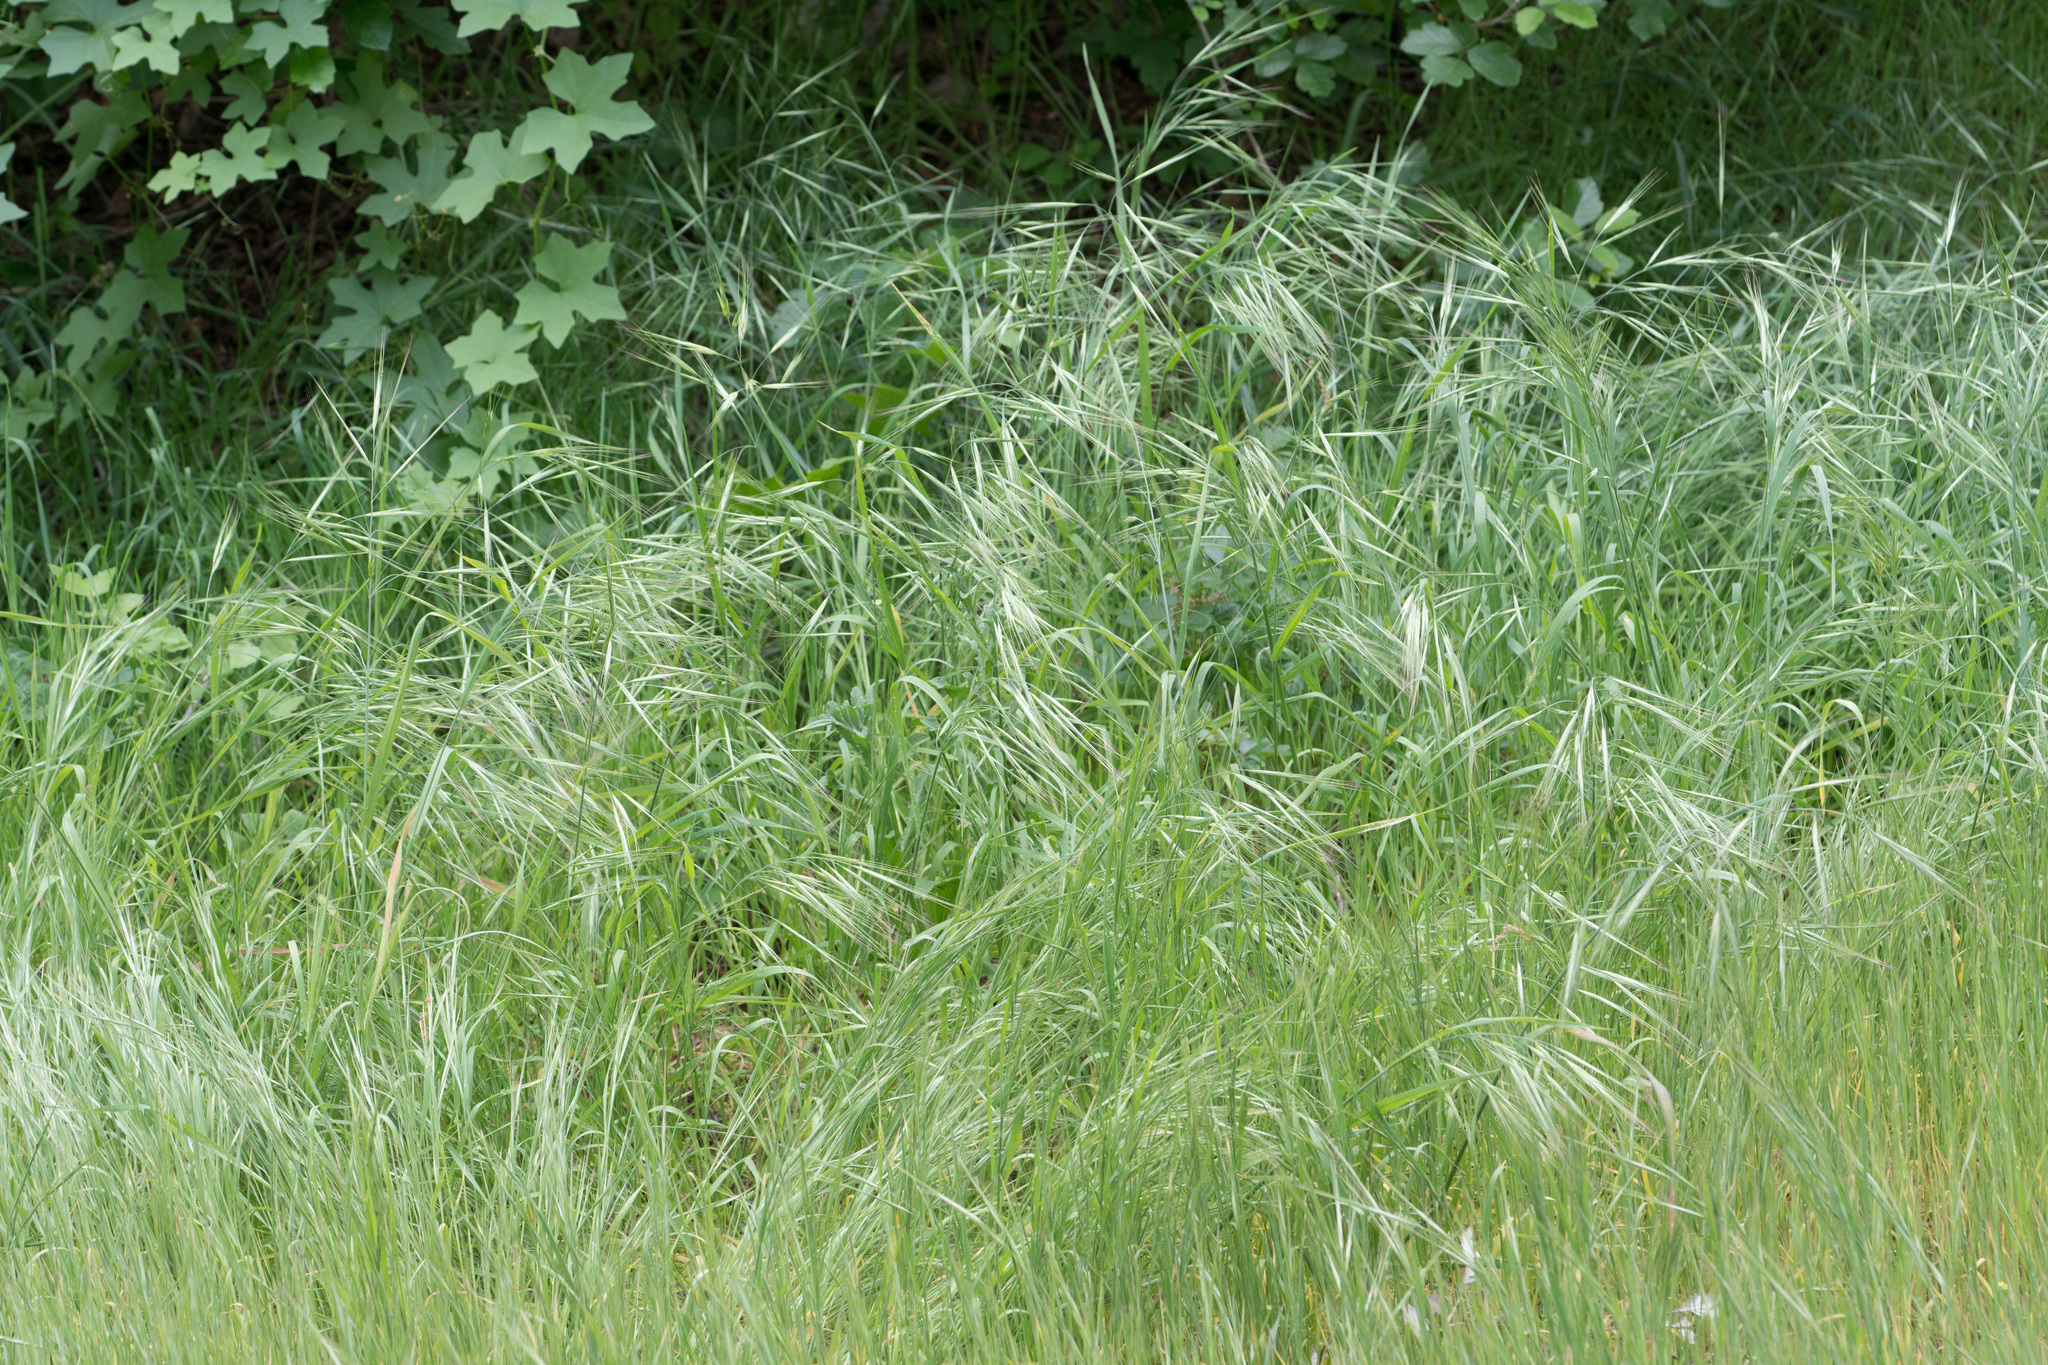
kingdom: Plantae
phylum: Tracheophyta
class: Liliopsida
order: Poales
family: Poaceae
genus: Bromus
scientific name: Bromus diandrus
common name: Ripgut brome
